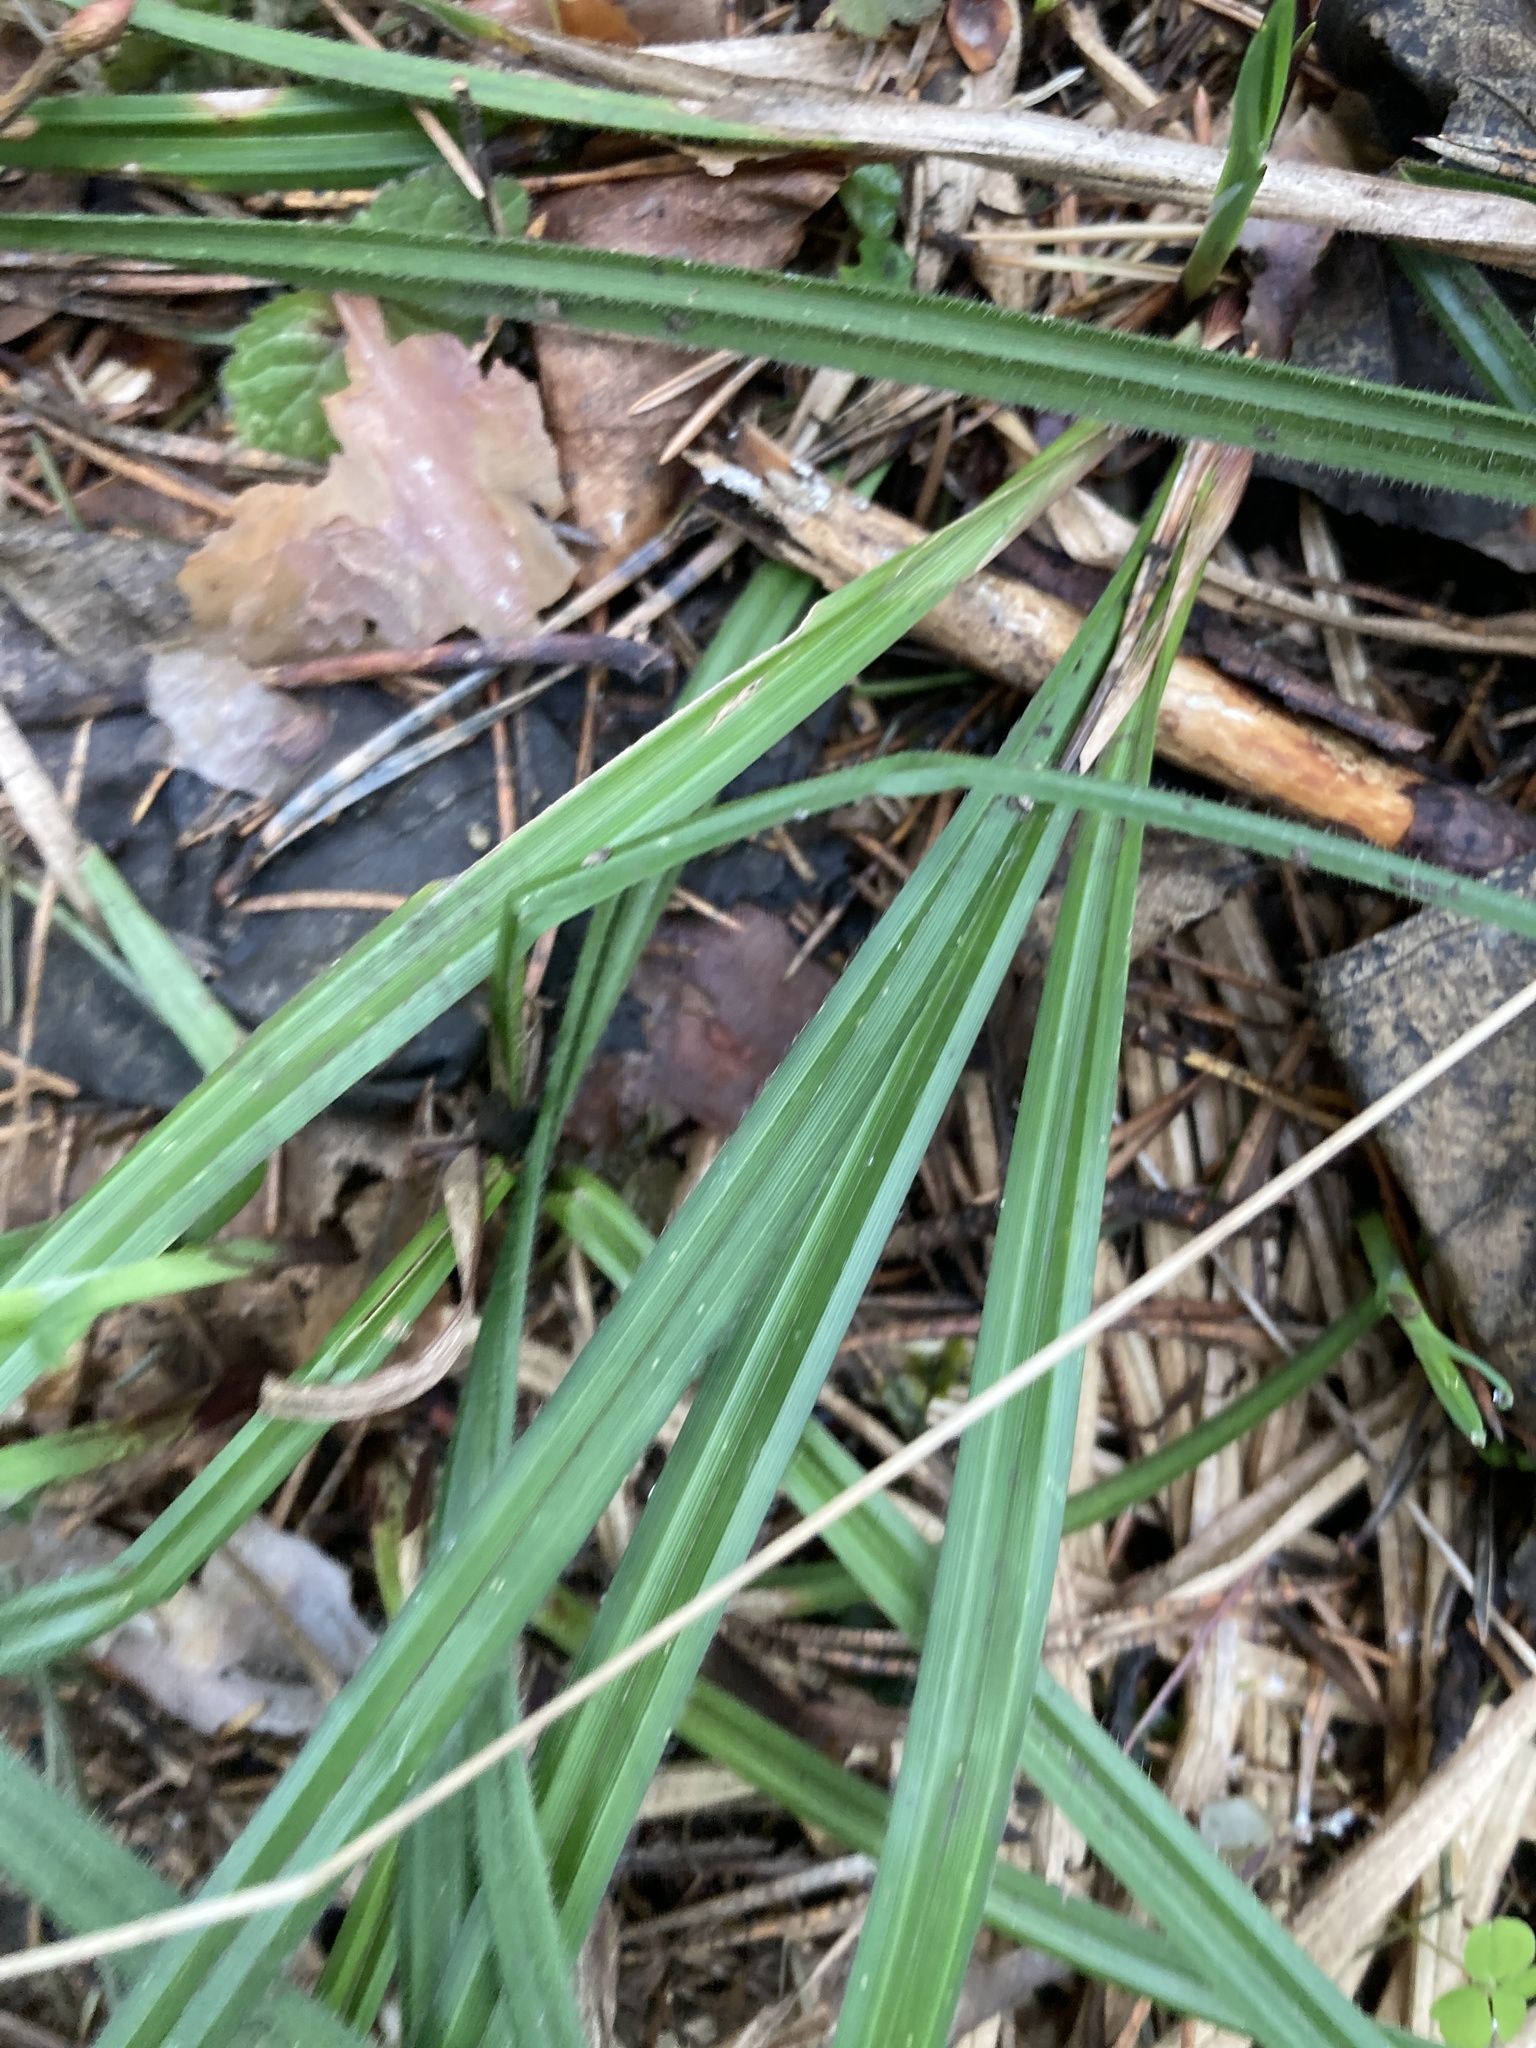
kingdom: Plantae
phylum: Tracheophyta
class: Liliopsida
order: Poales
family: Cyperaceae
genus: Carex
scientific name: Carex pilosa
